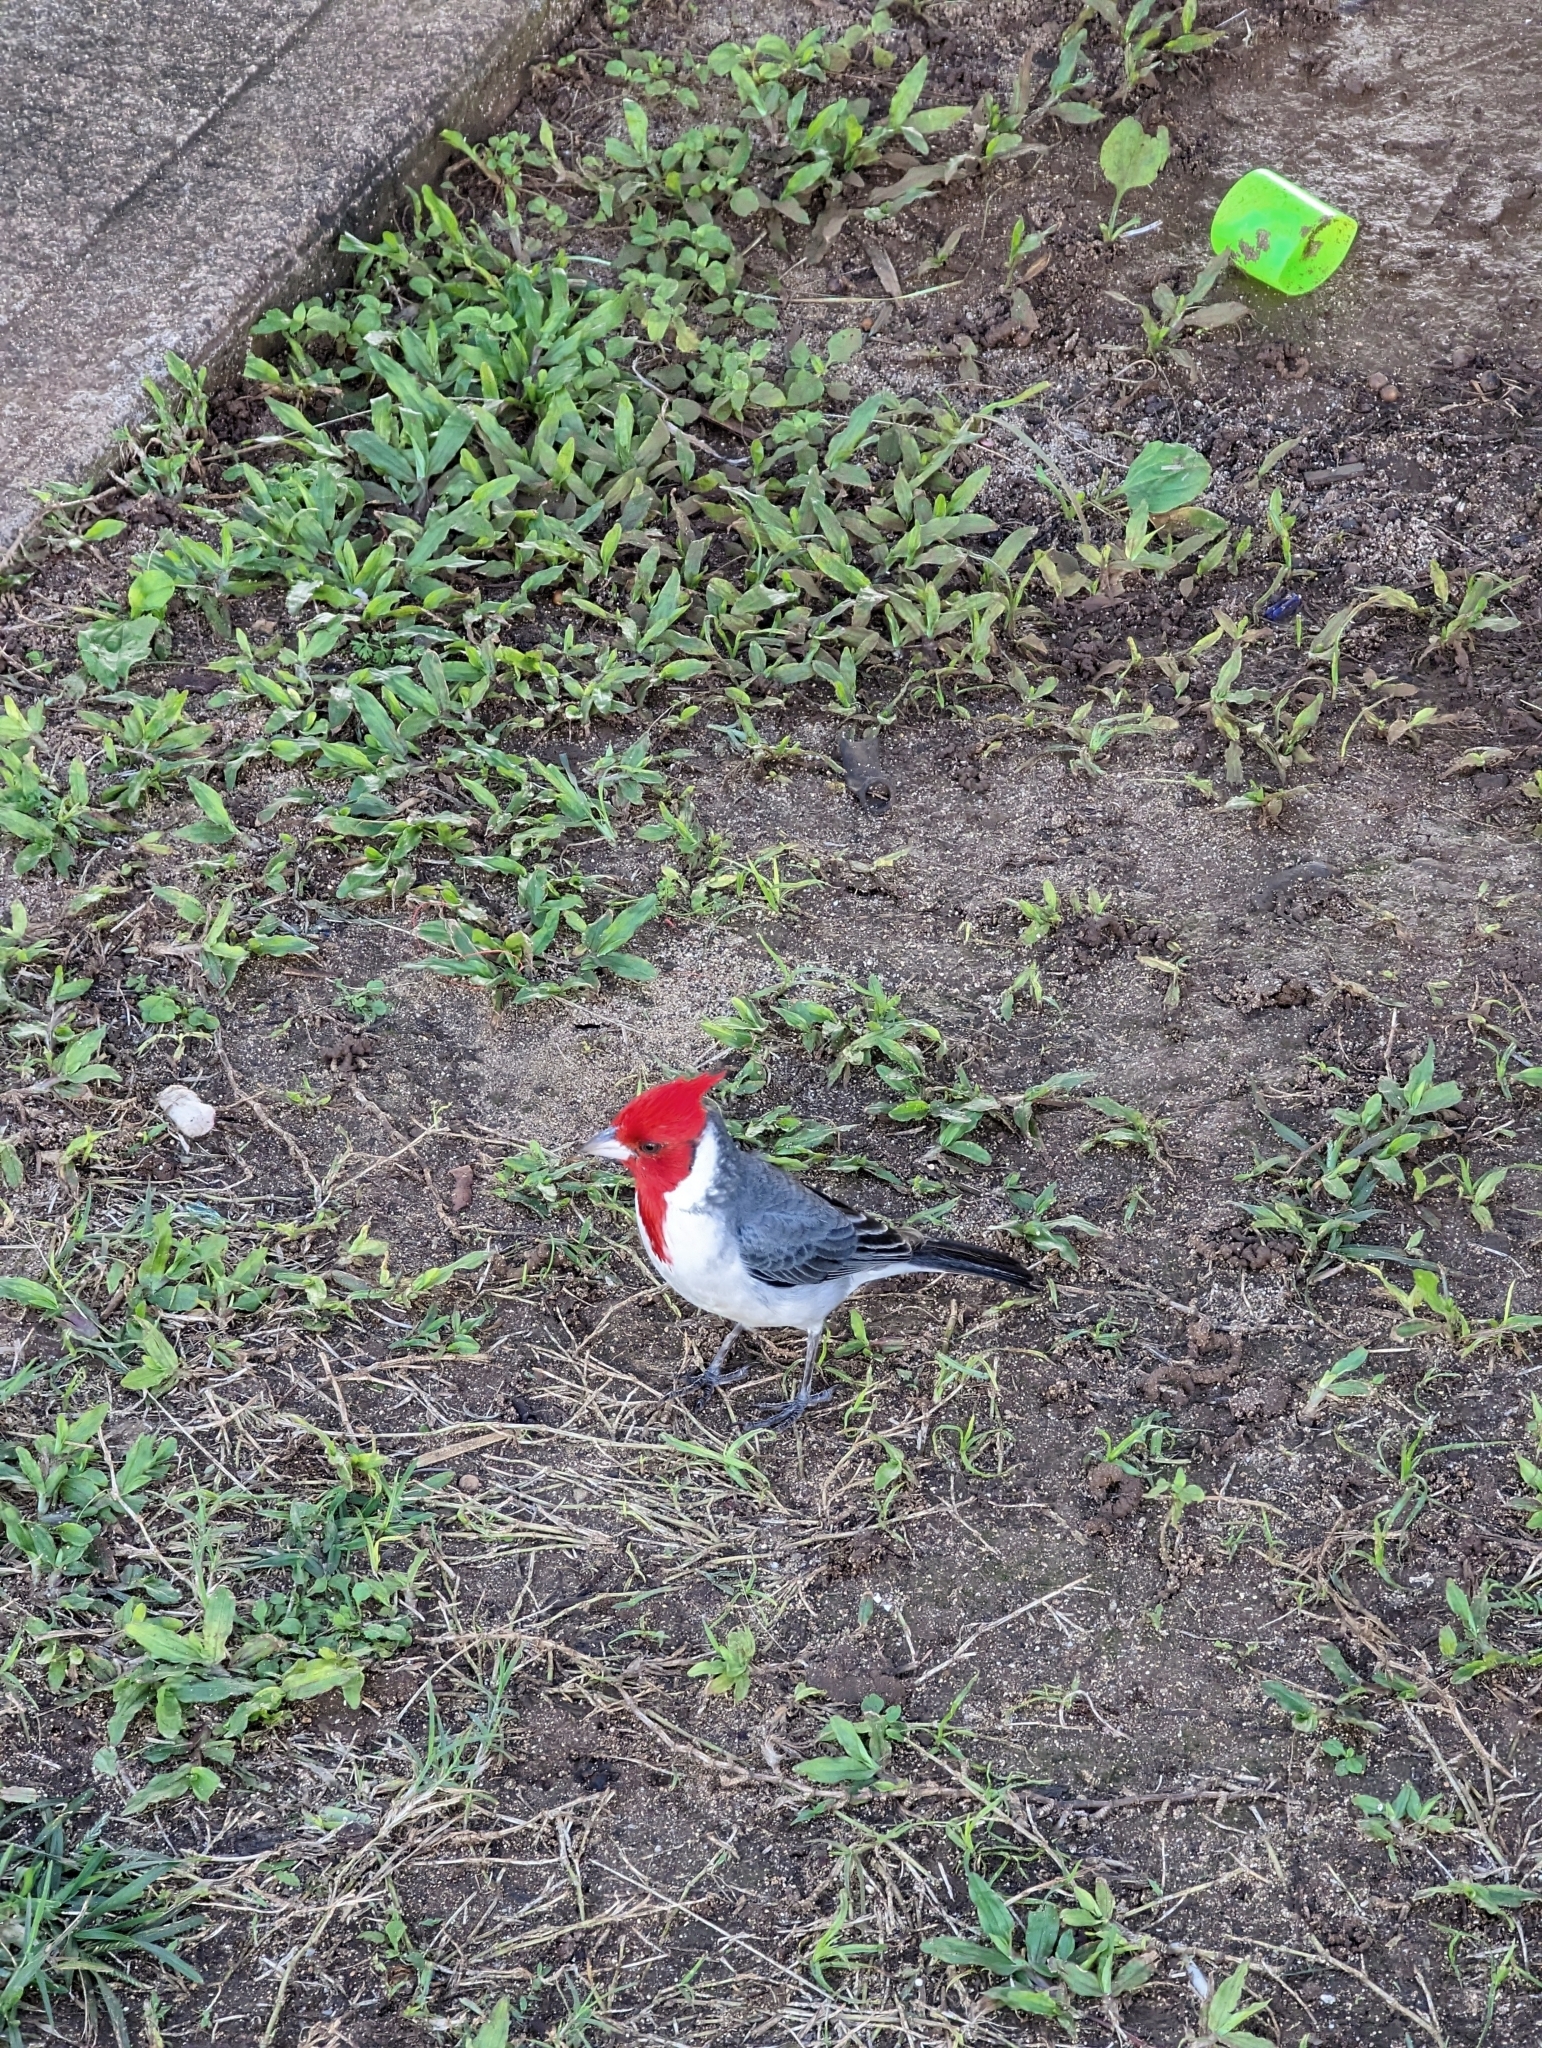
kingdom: Animalia
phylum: Chordata
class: Aves
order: Passeriformes
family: Thraupidae
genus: Paroaria
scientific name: Paroaria coronata
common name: Red-crested cardinal
